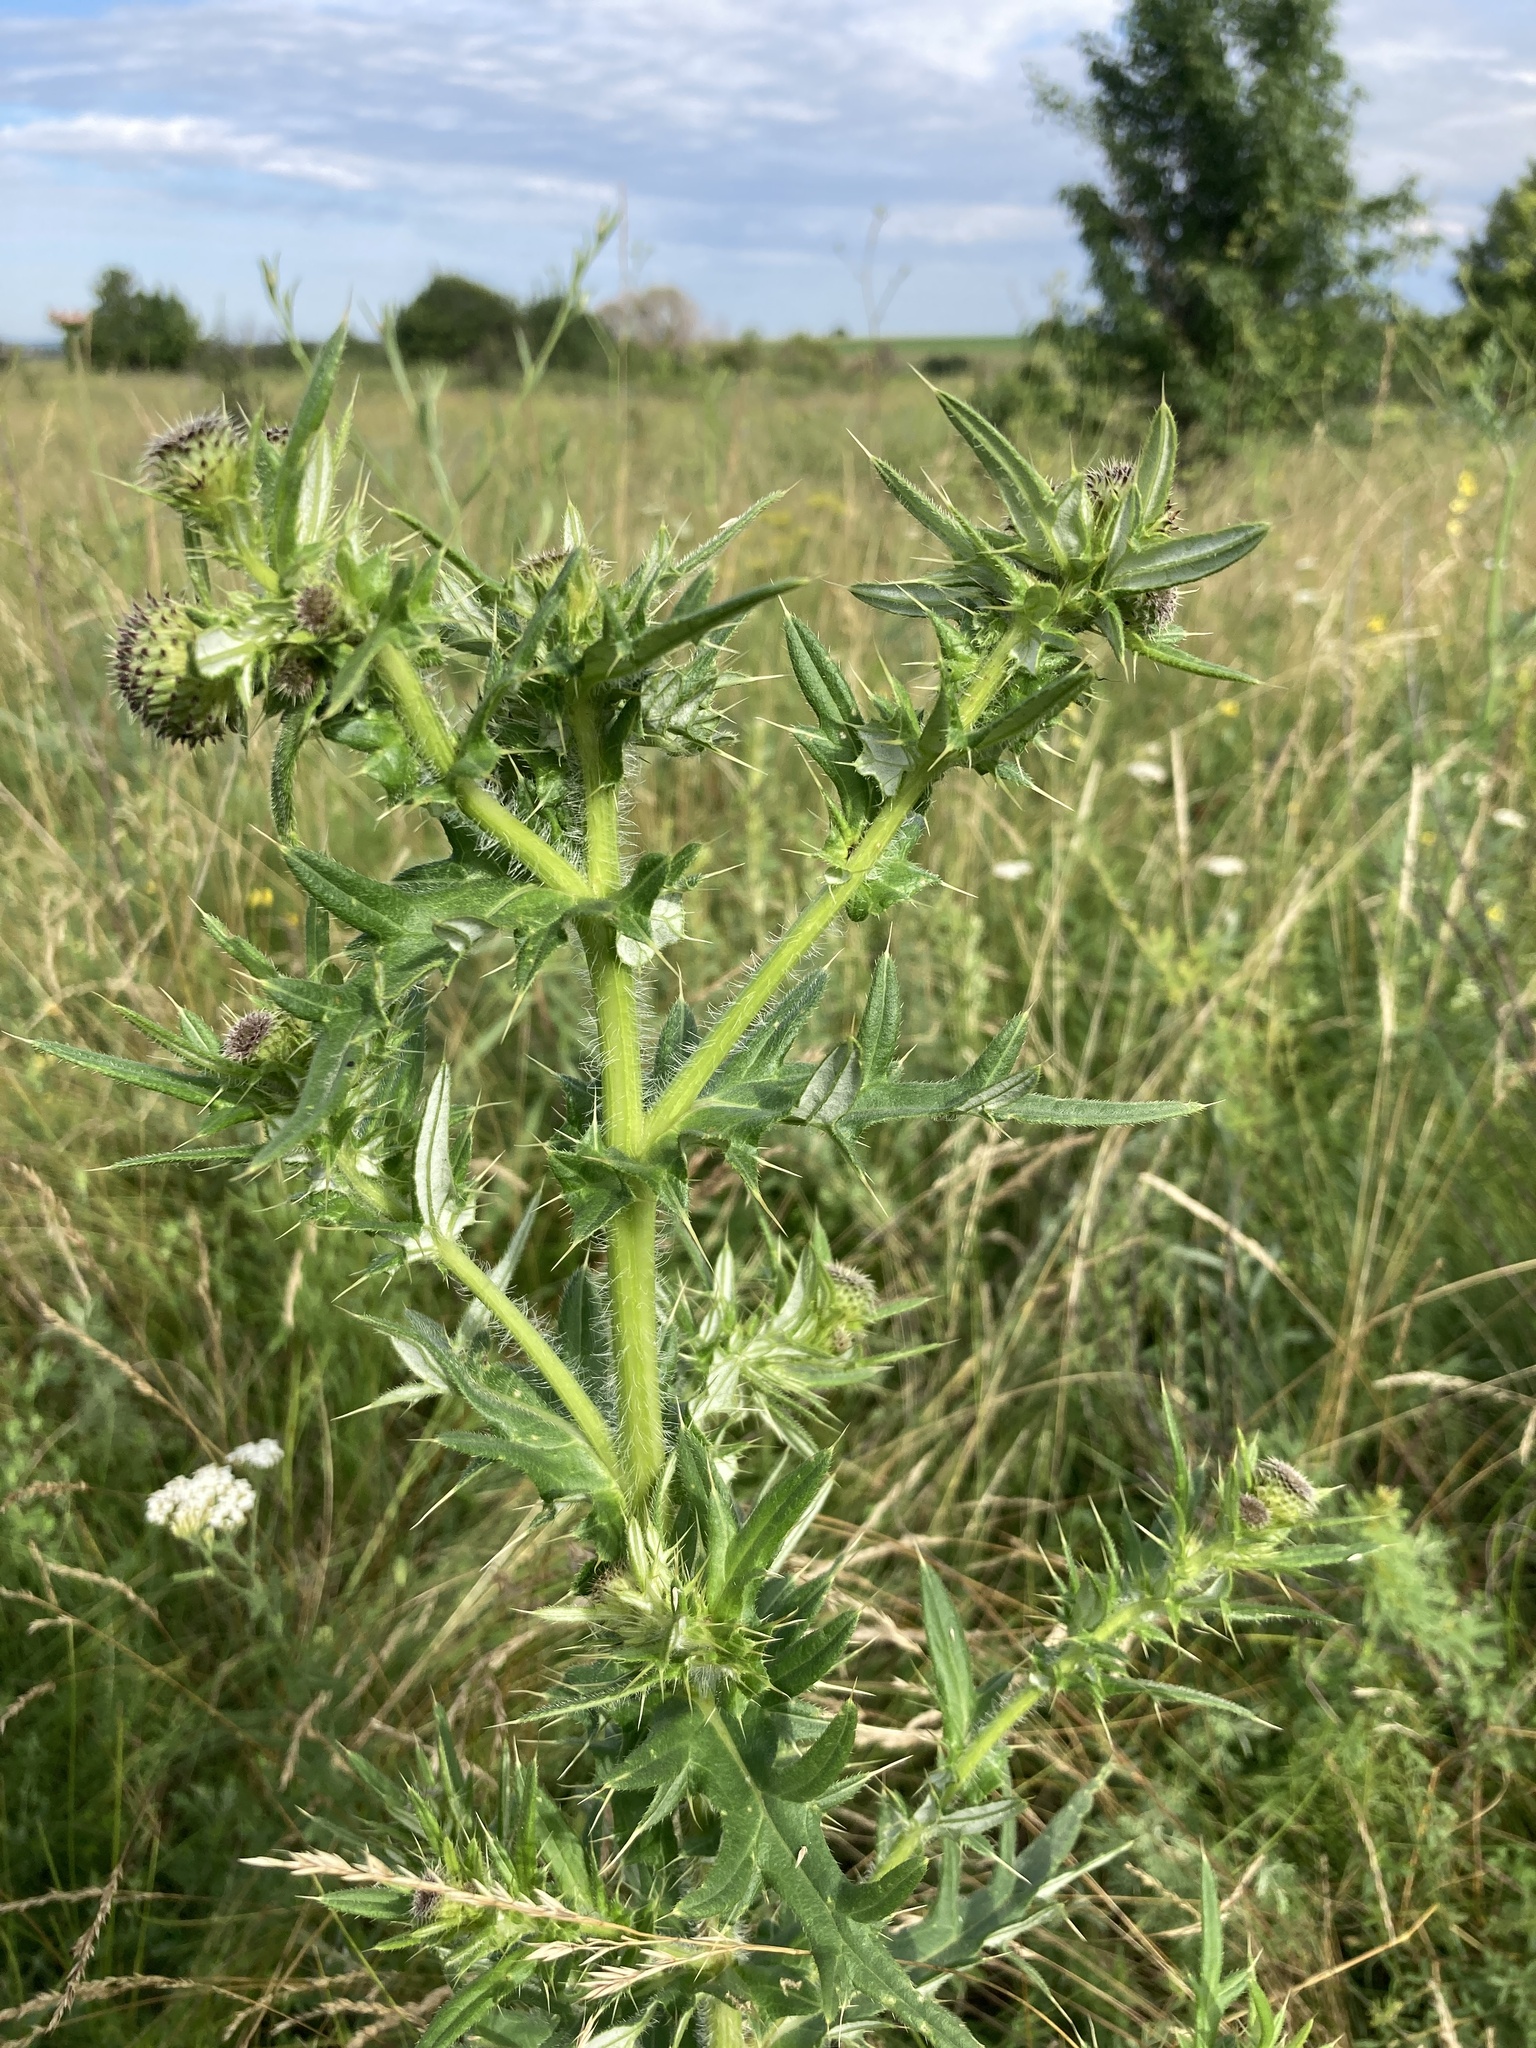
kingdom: Plantae
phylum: Tracheophyta
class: Magnoliopsida
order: Asterales
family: Asteraceae
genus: Cirsium
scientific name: Cirsium serrulatum
